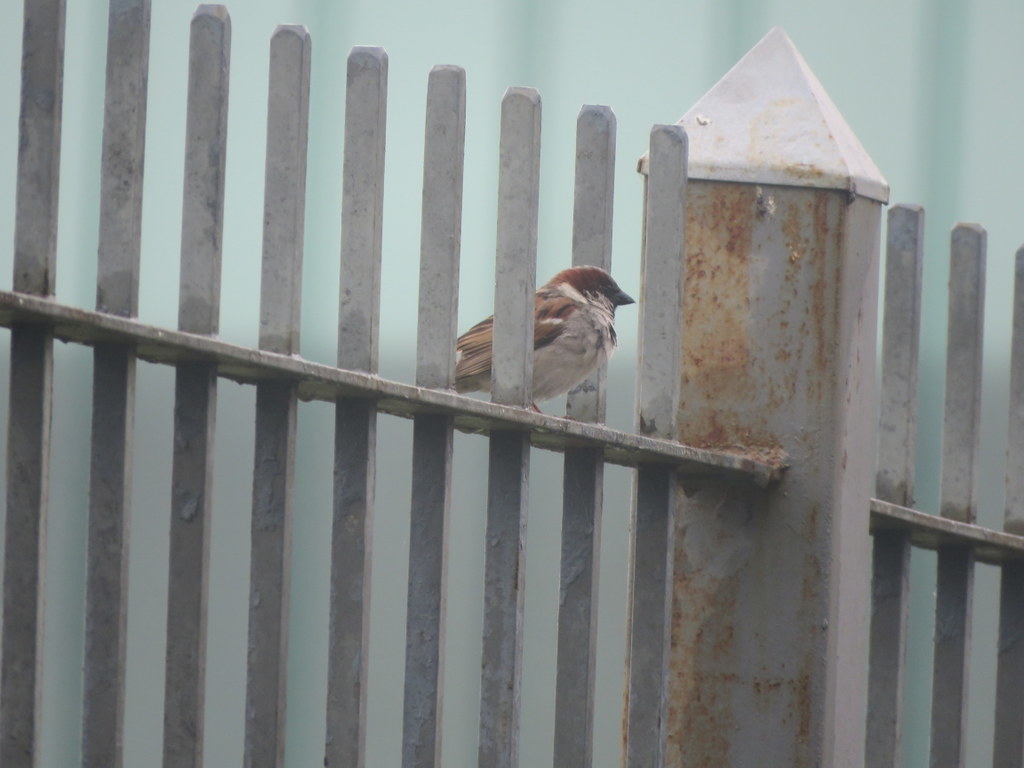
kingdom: Animalia
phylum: Chordata
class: Aves
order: Passeriformes
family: Passeridae
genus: Passer
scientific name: Passer domesticus
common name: House sparrow
